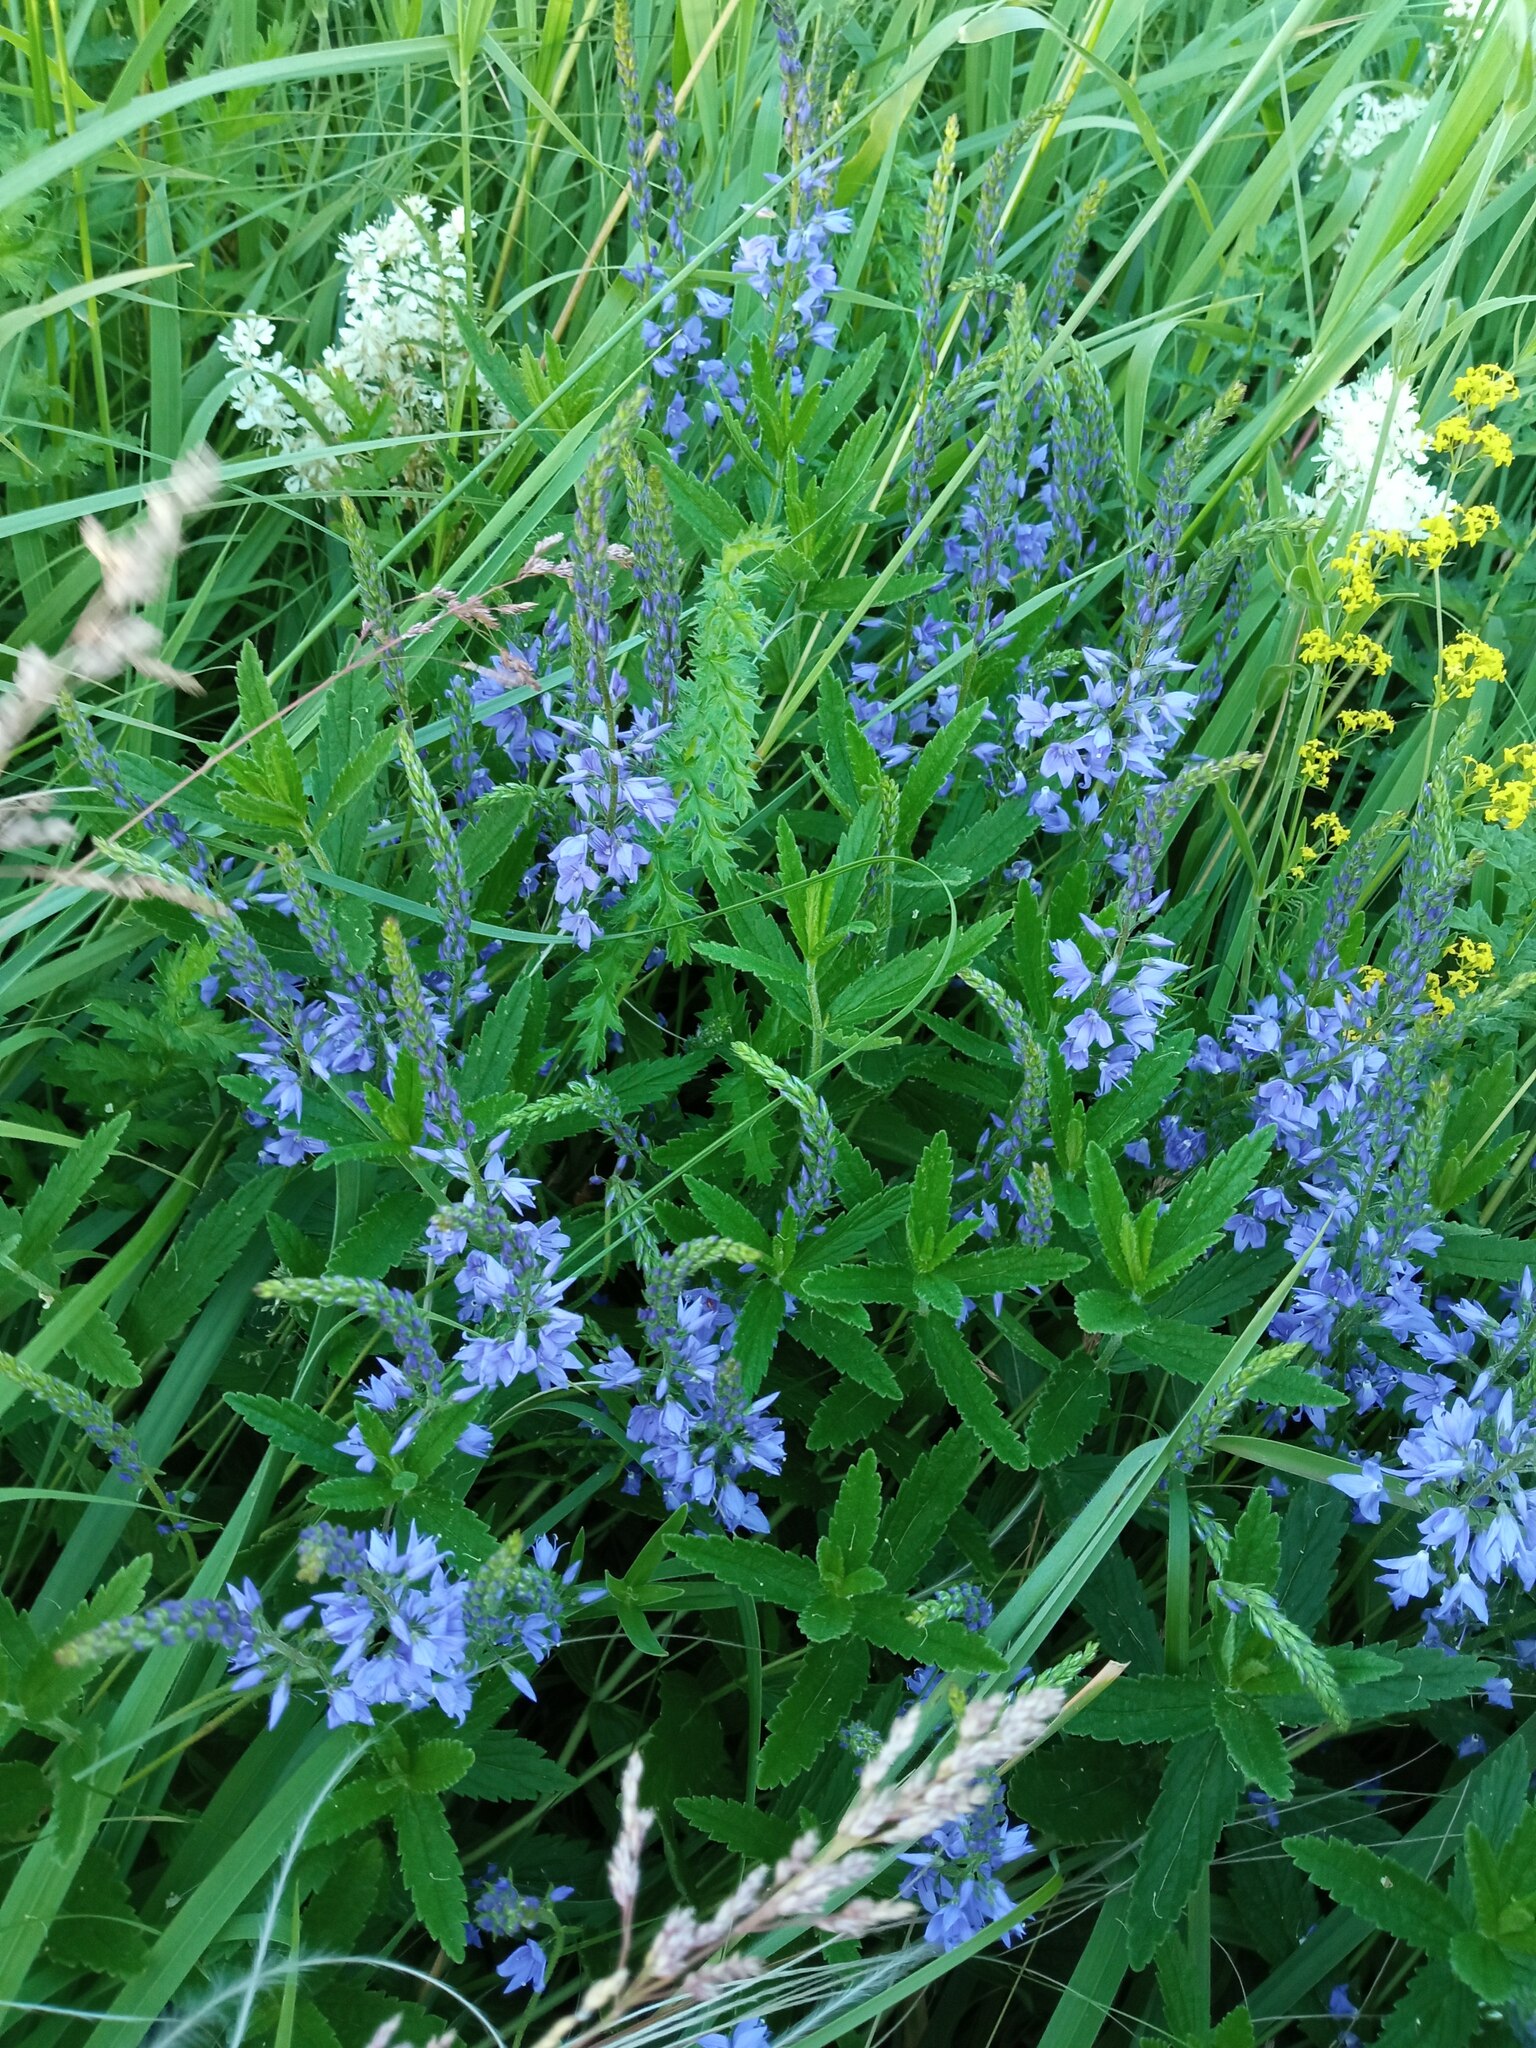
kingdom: Plantae
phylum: Tracheophyta
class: Magnoliopsida
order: Lamiales
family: Plantaginaceae
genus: Veronica
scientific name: Veronica teucrium
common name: Large speedwell
